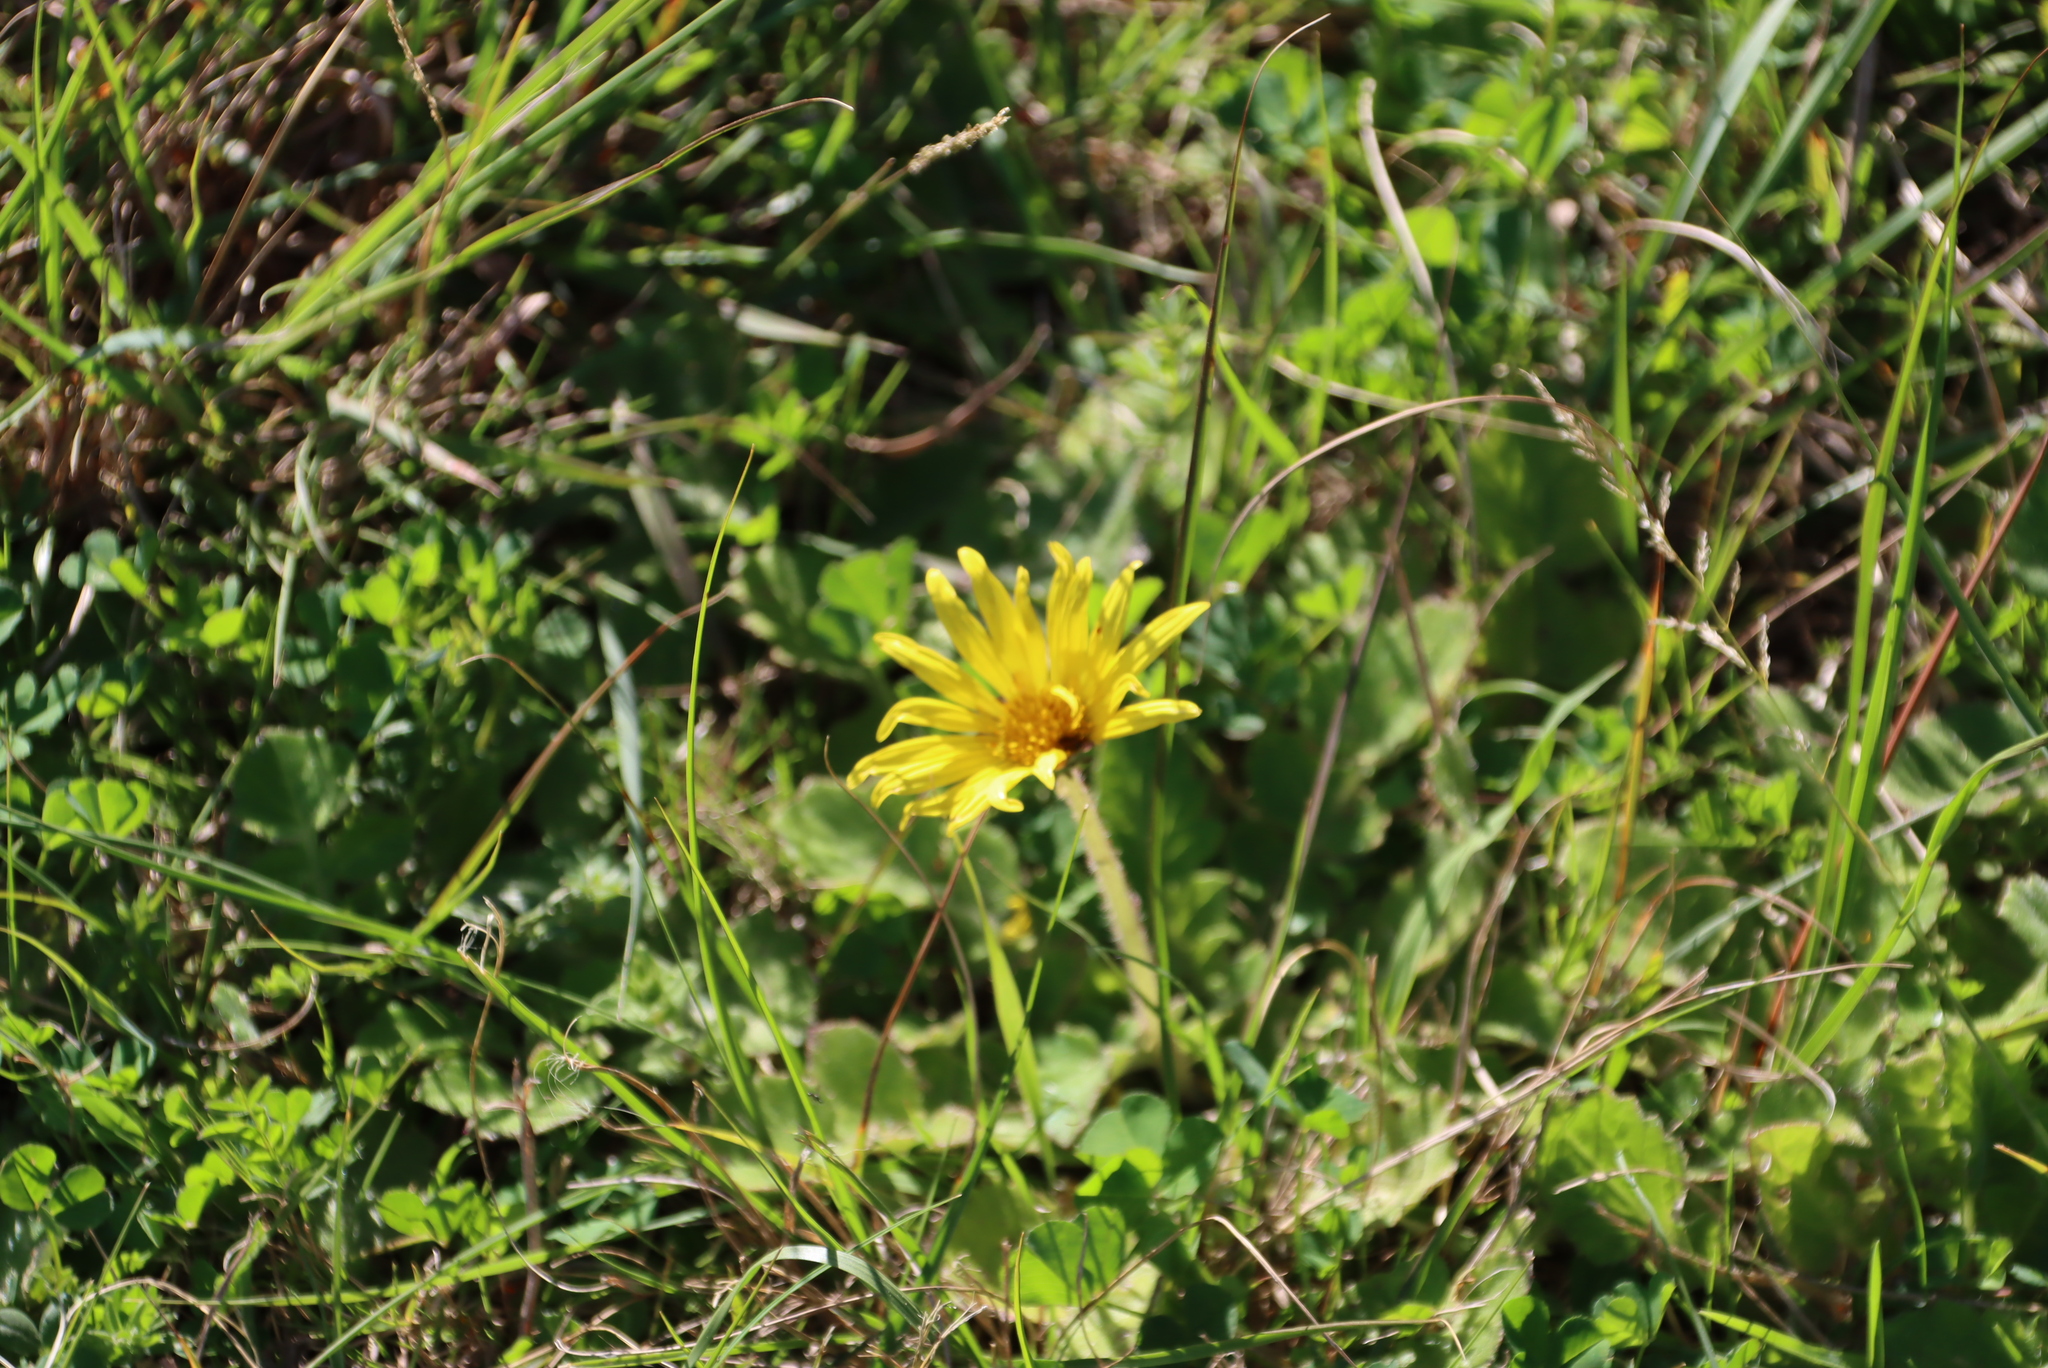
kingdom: Plantae
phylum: Tracheophyta
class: Magnoliopsida
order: Asterales
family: Asteraceae
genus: Arctotheca
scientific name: Arctotheca prostrata
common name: Capeweed
